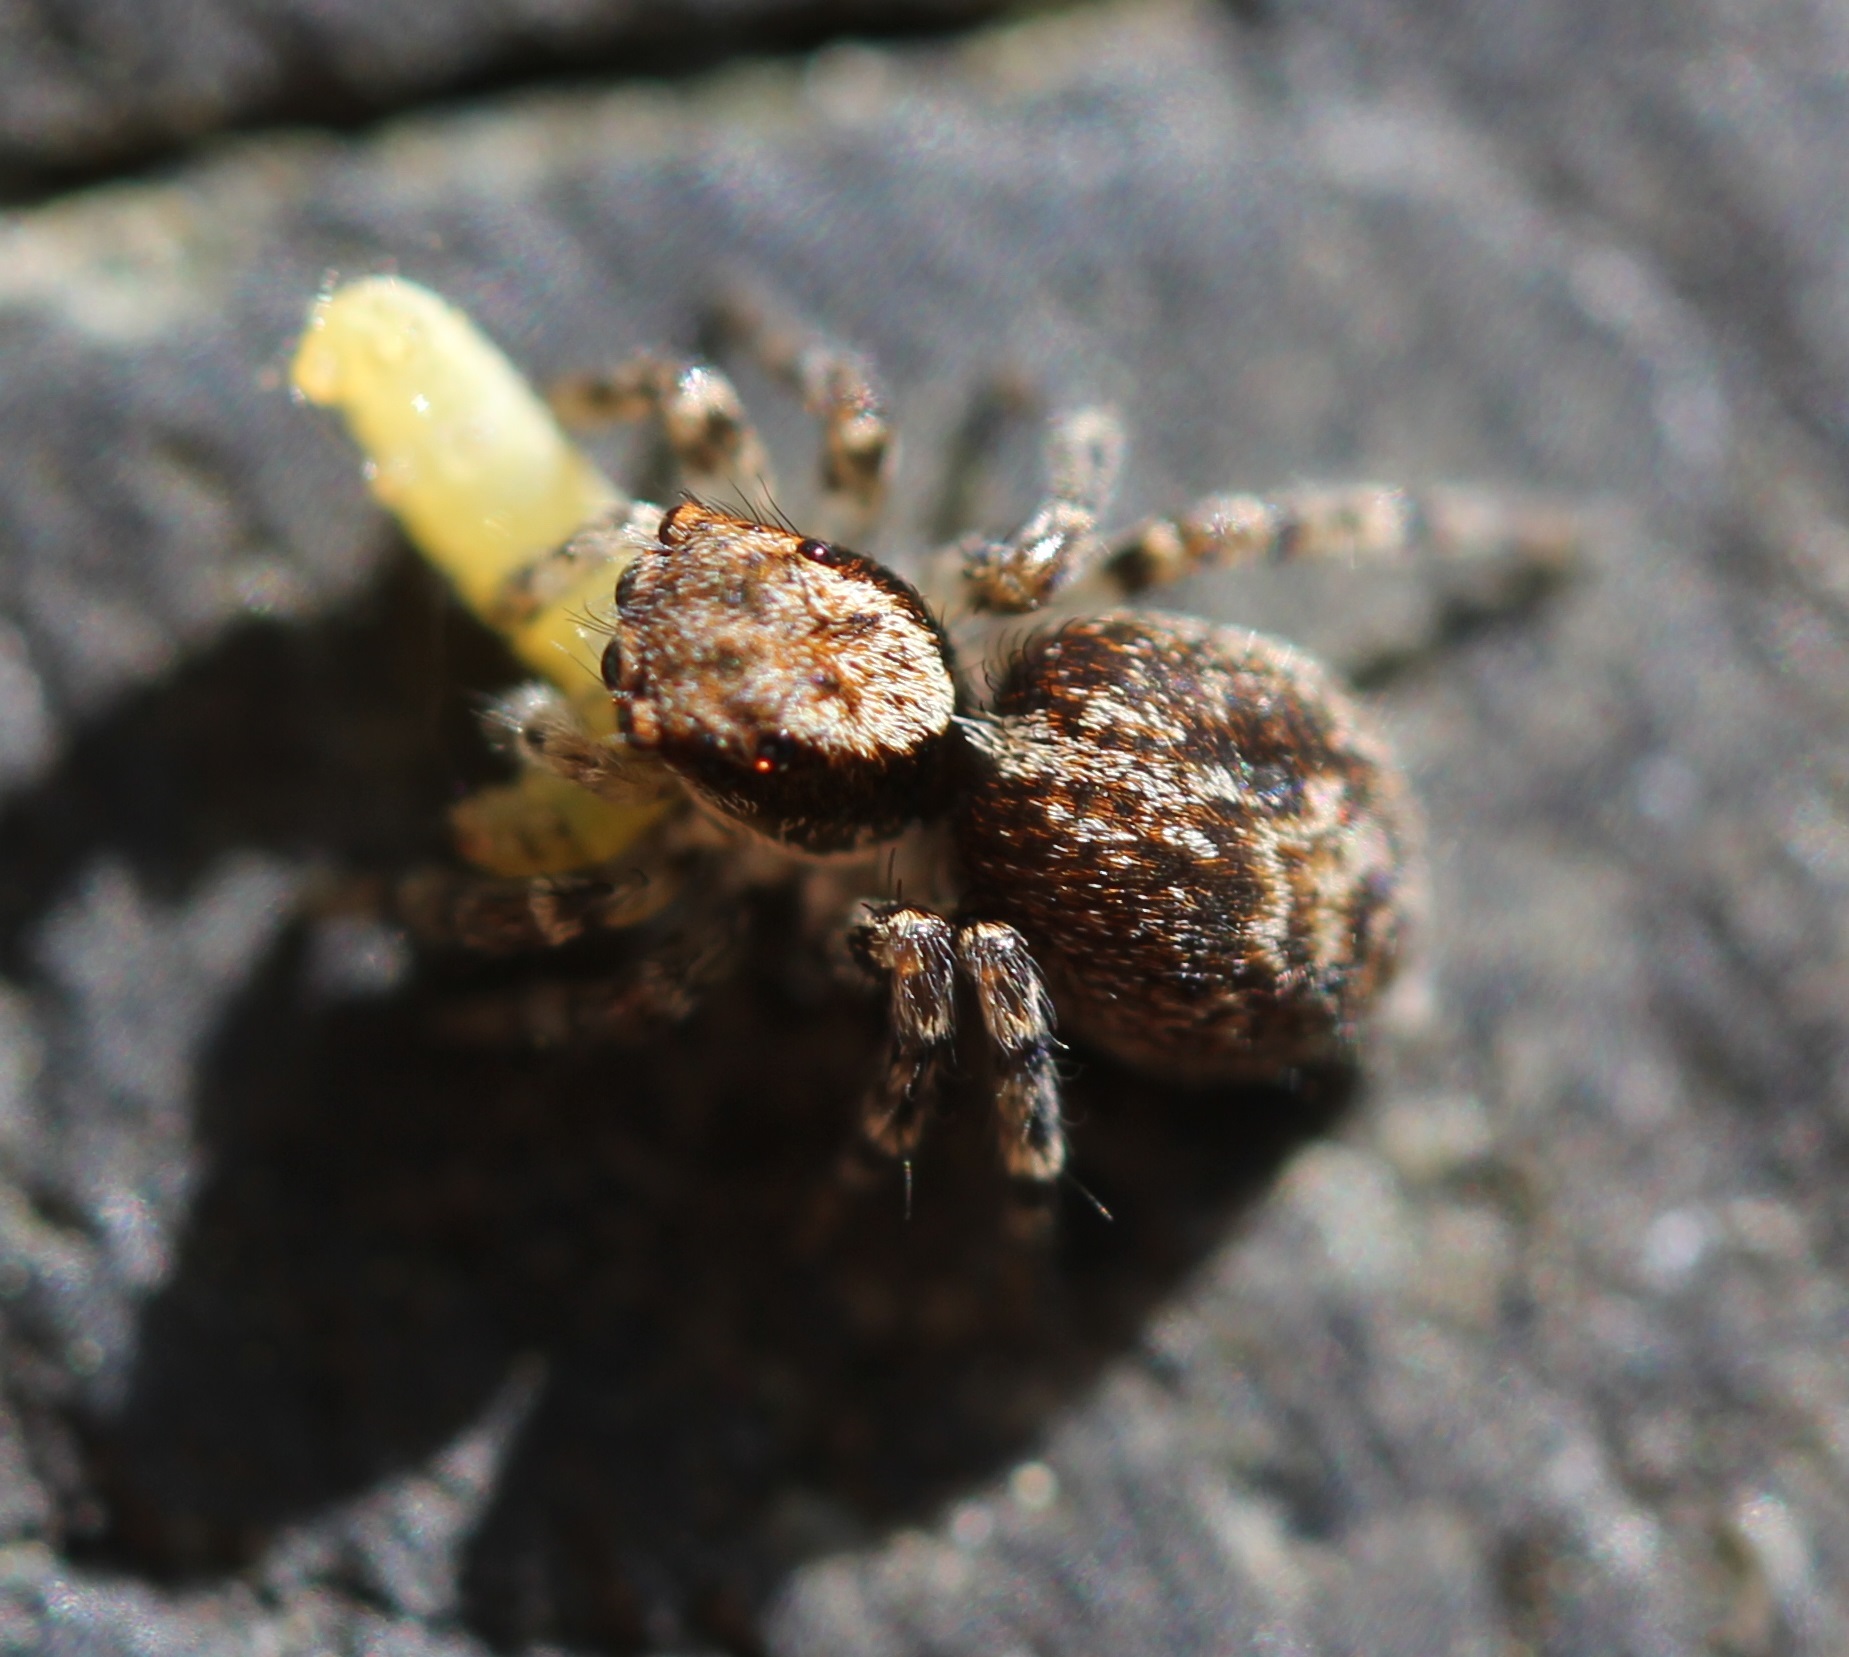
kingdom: Animalia
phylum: Arthropoda
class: Arachnida
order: Araneae
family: Salticidae
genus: Naphrys
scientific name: Naphrys pulex
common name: Flea jumping spider
